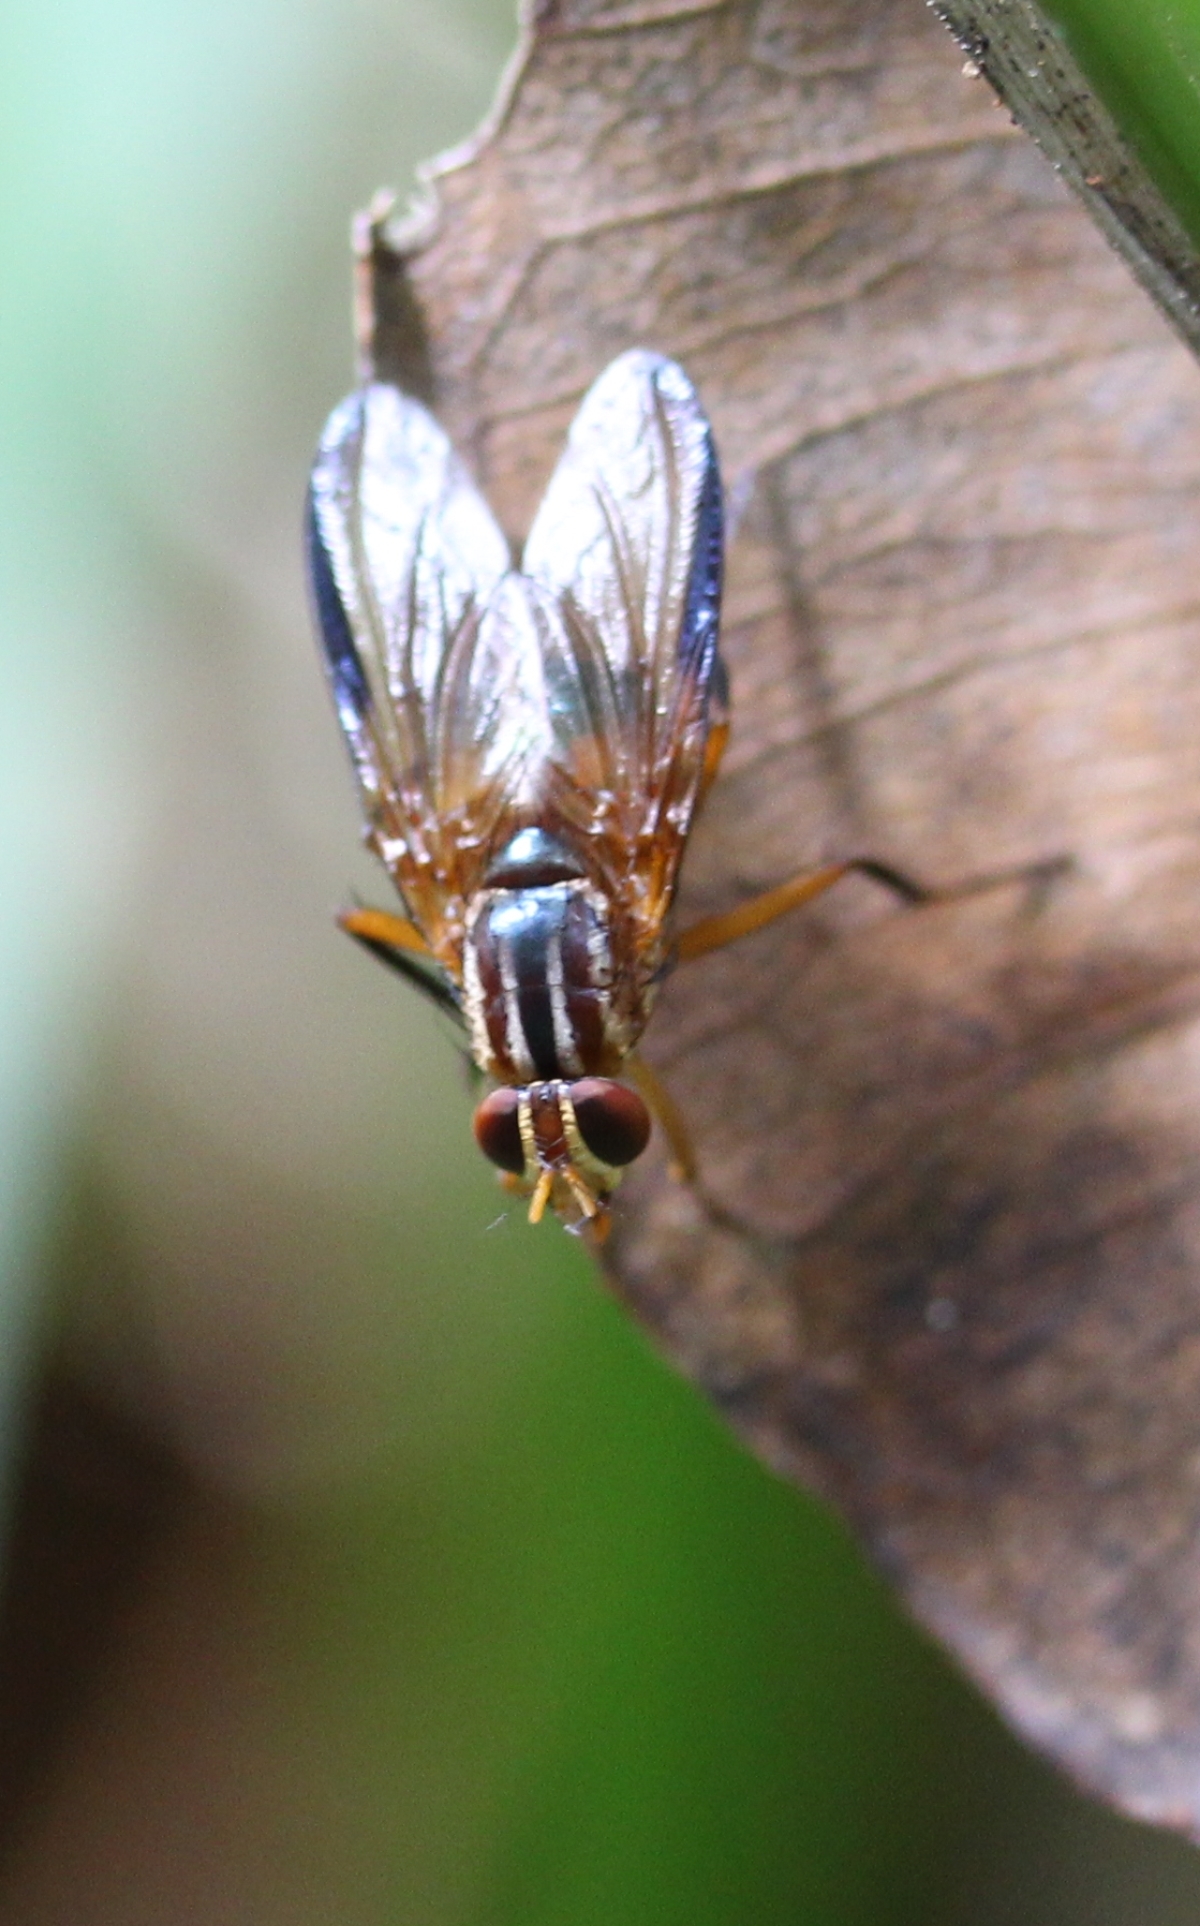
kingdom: Animalia
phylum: Arthropoda
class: Insecta
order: Diptera
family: Mesembrinellidae
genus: Mesembrinella
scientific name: Mesembrinella
